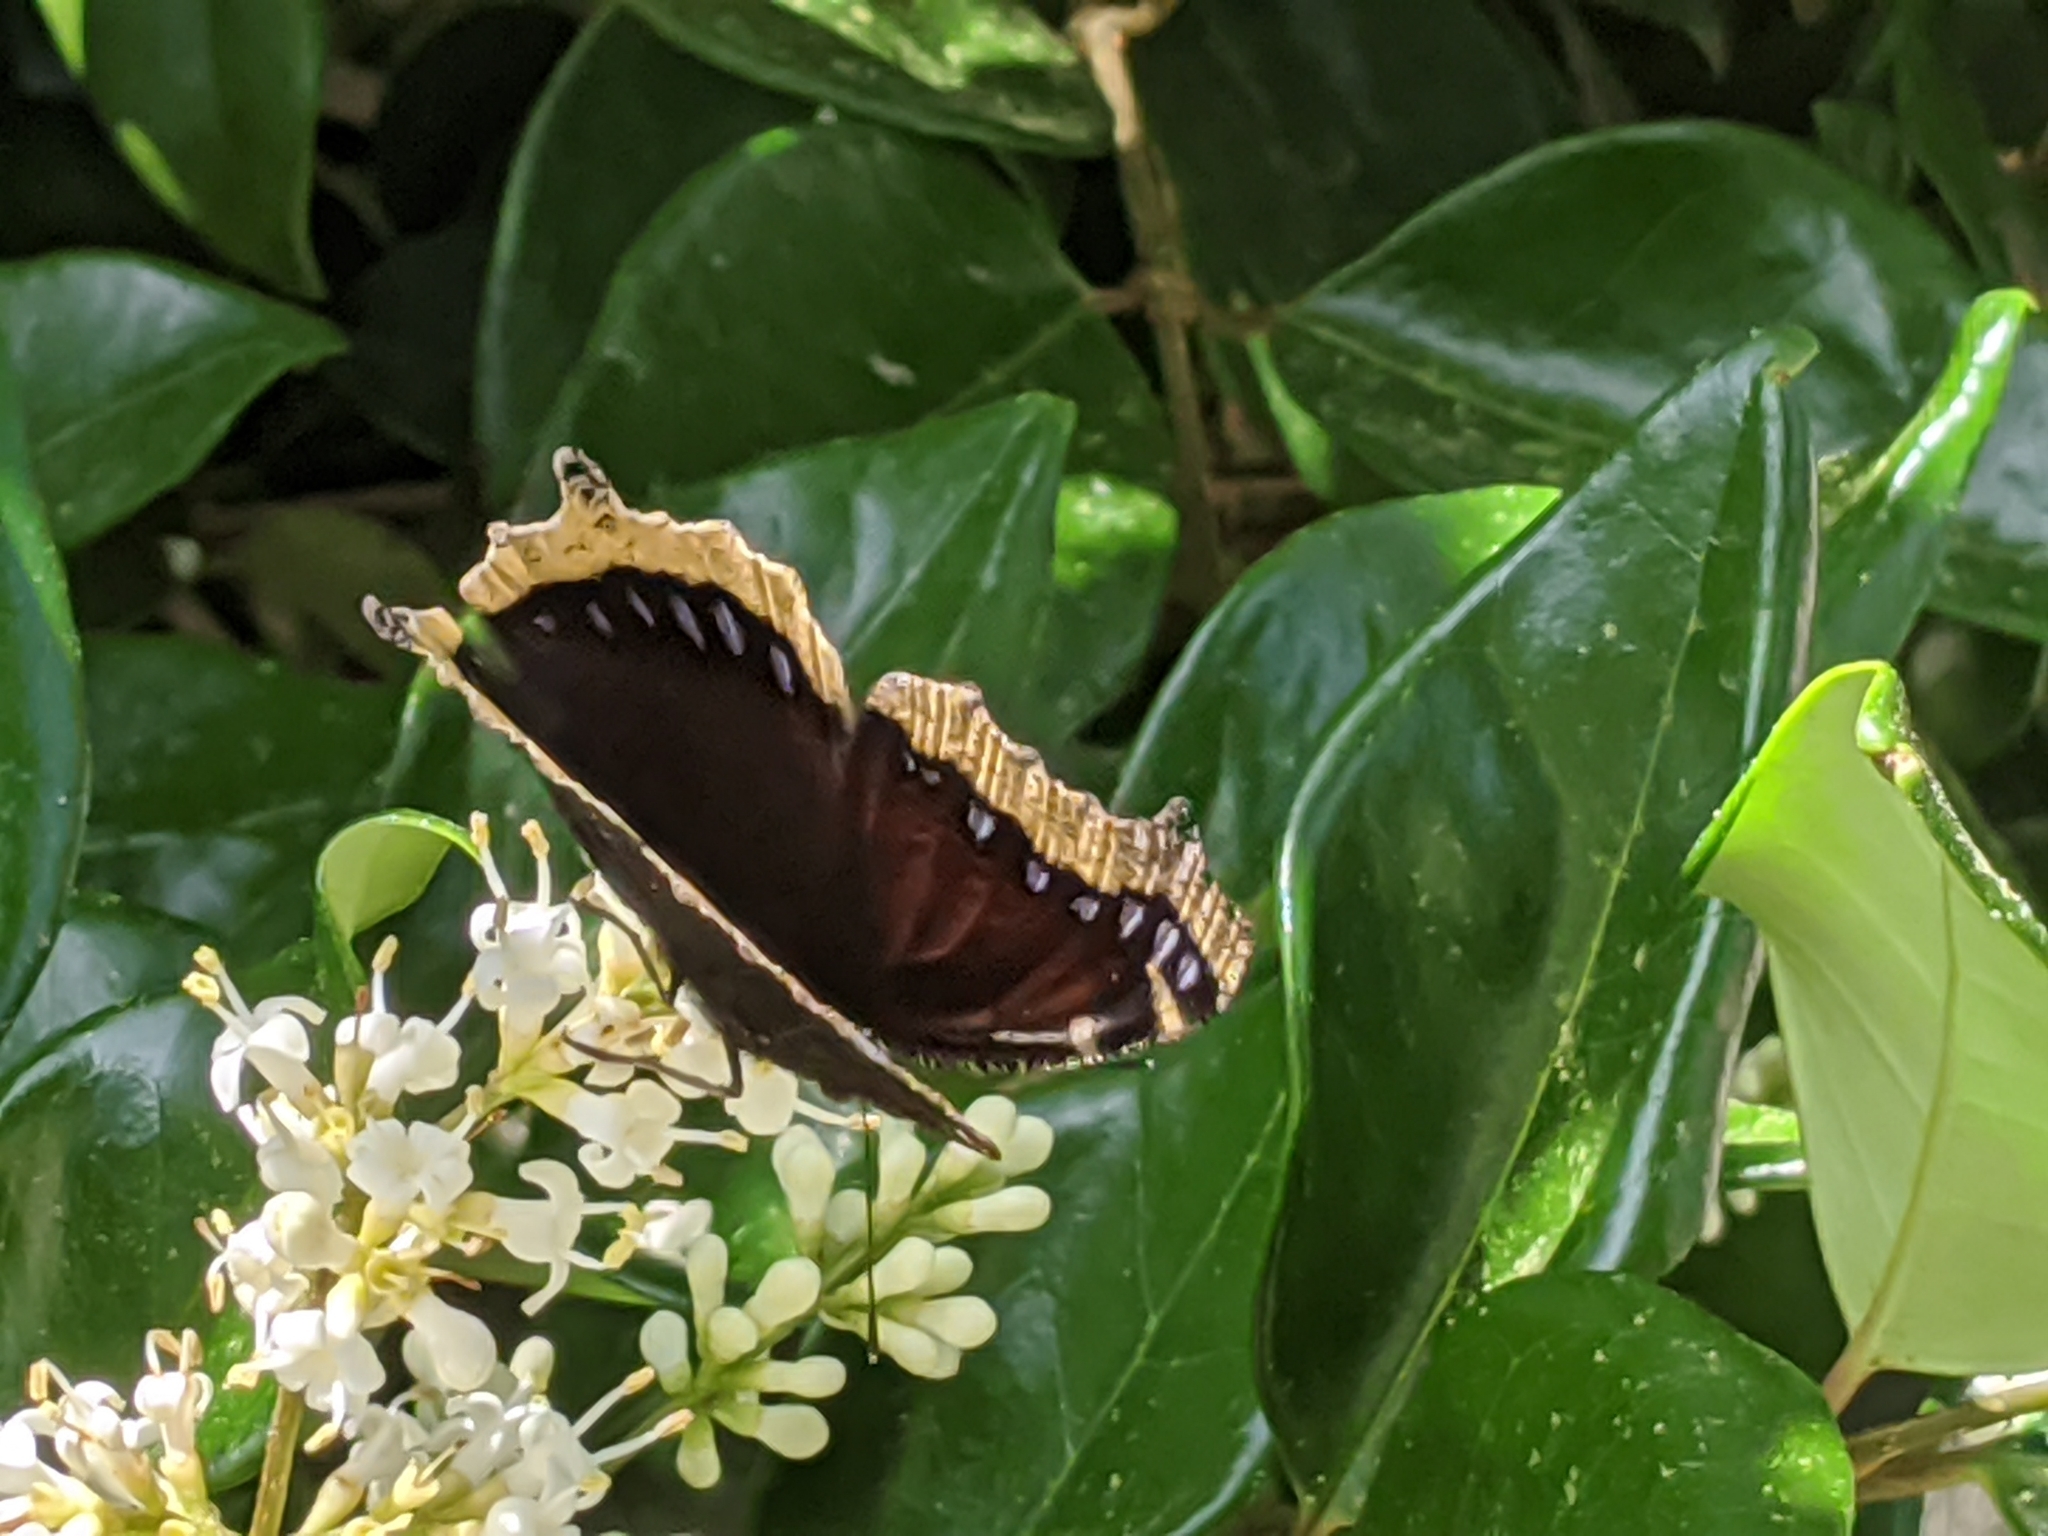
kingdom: Animalia
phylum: Arthropoda
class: Insecta
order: Lepidoptera
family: Nymphalidae
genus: Nymphalis
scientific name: Nymphalis antiopa
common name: Camberwell beauty
